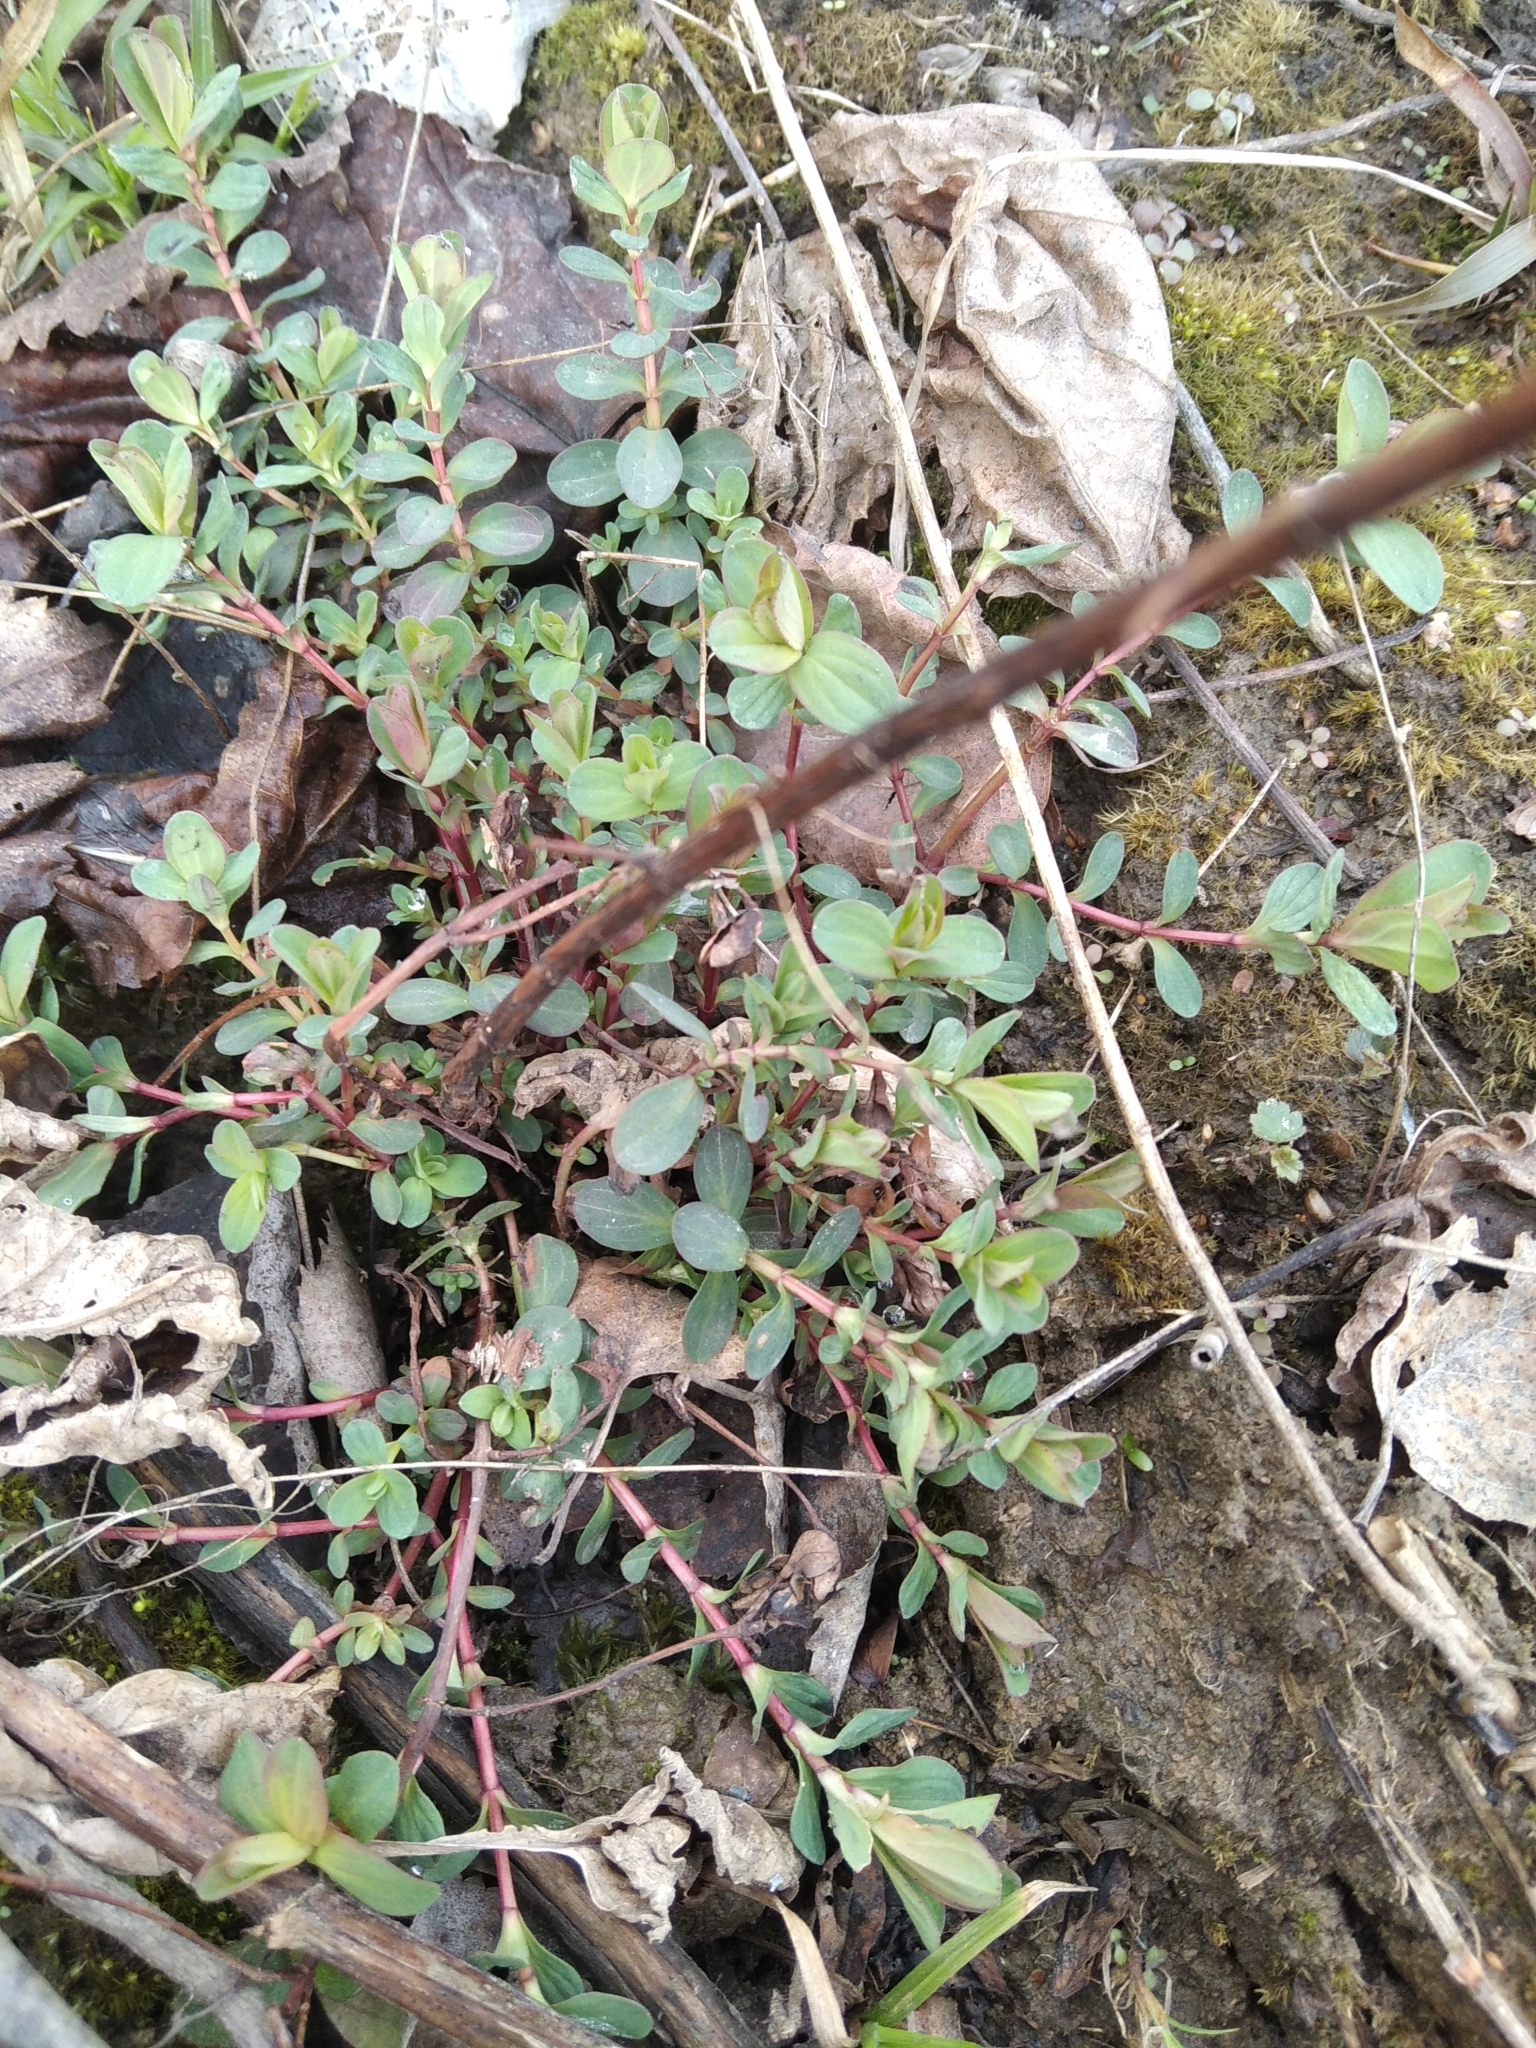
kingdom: Plantae
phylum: Tracheophyta
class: Magnoliopsida
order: Malpighiales
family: Hypericaceae
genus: Hypericum
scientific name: Hypericum perforatum
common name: Common st. johnswort
